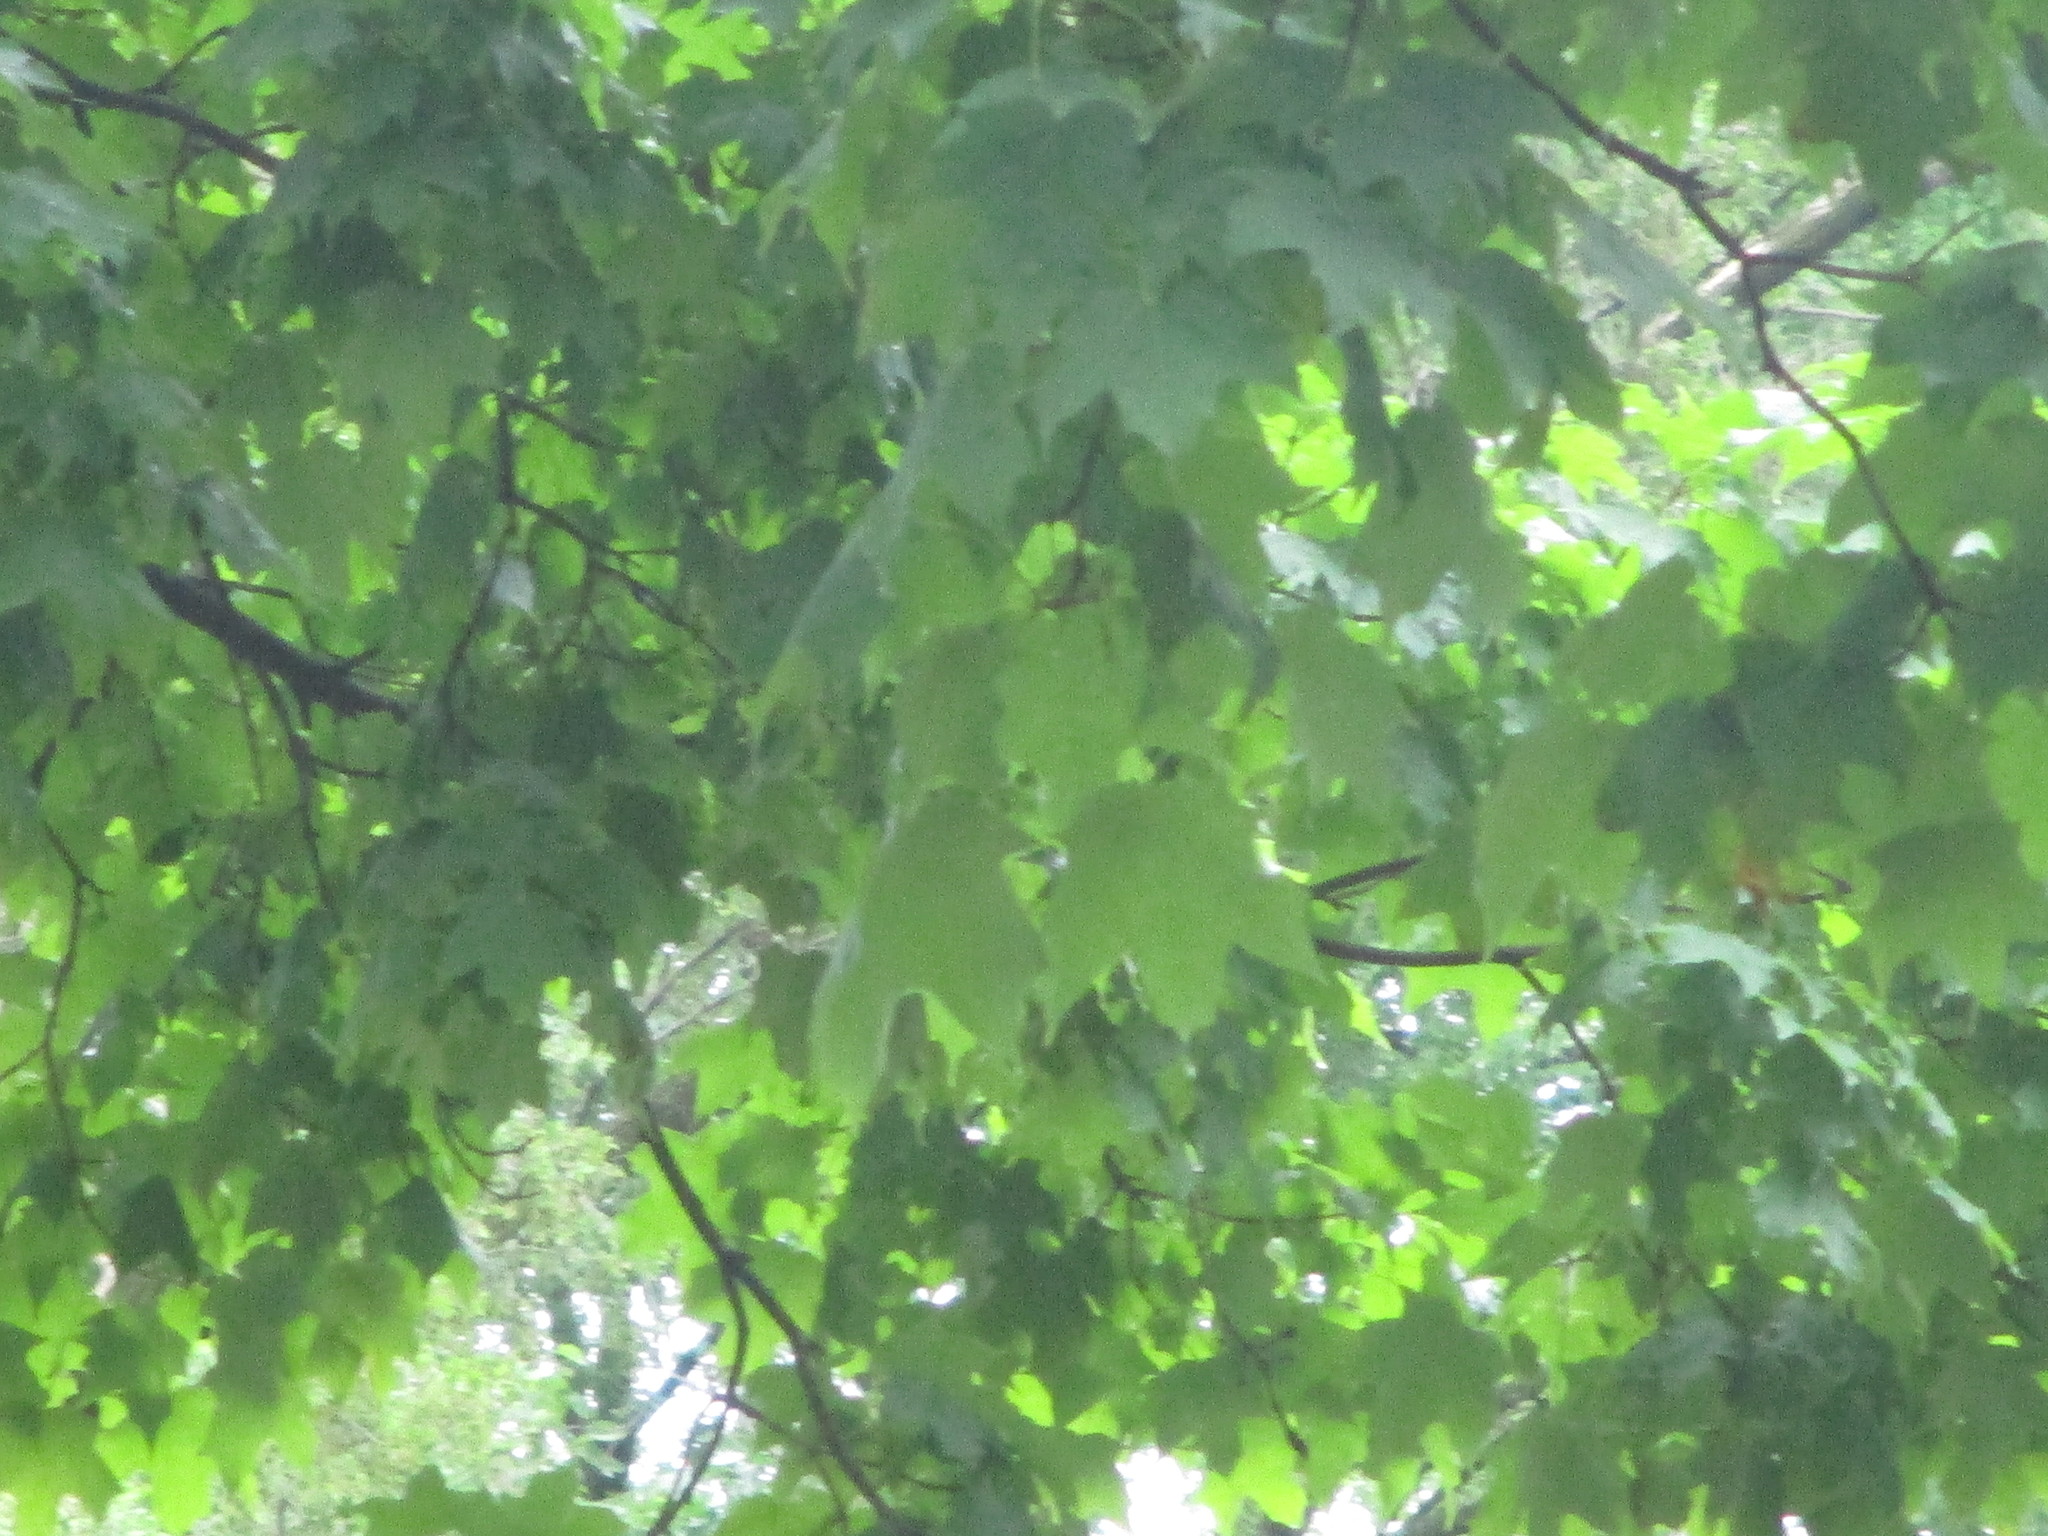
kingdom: Plantae
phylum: Tracheophyta
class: Magnoliopsida
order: Sapindales
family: Sapindaceae
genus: Acer
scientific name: Acer nigrum
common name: Black maple
